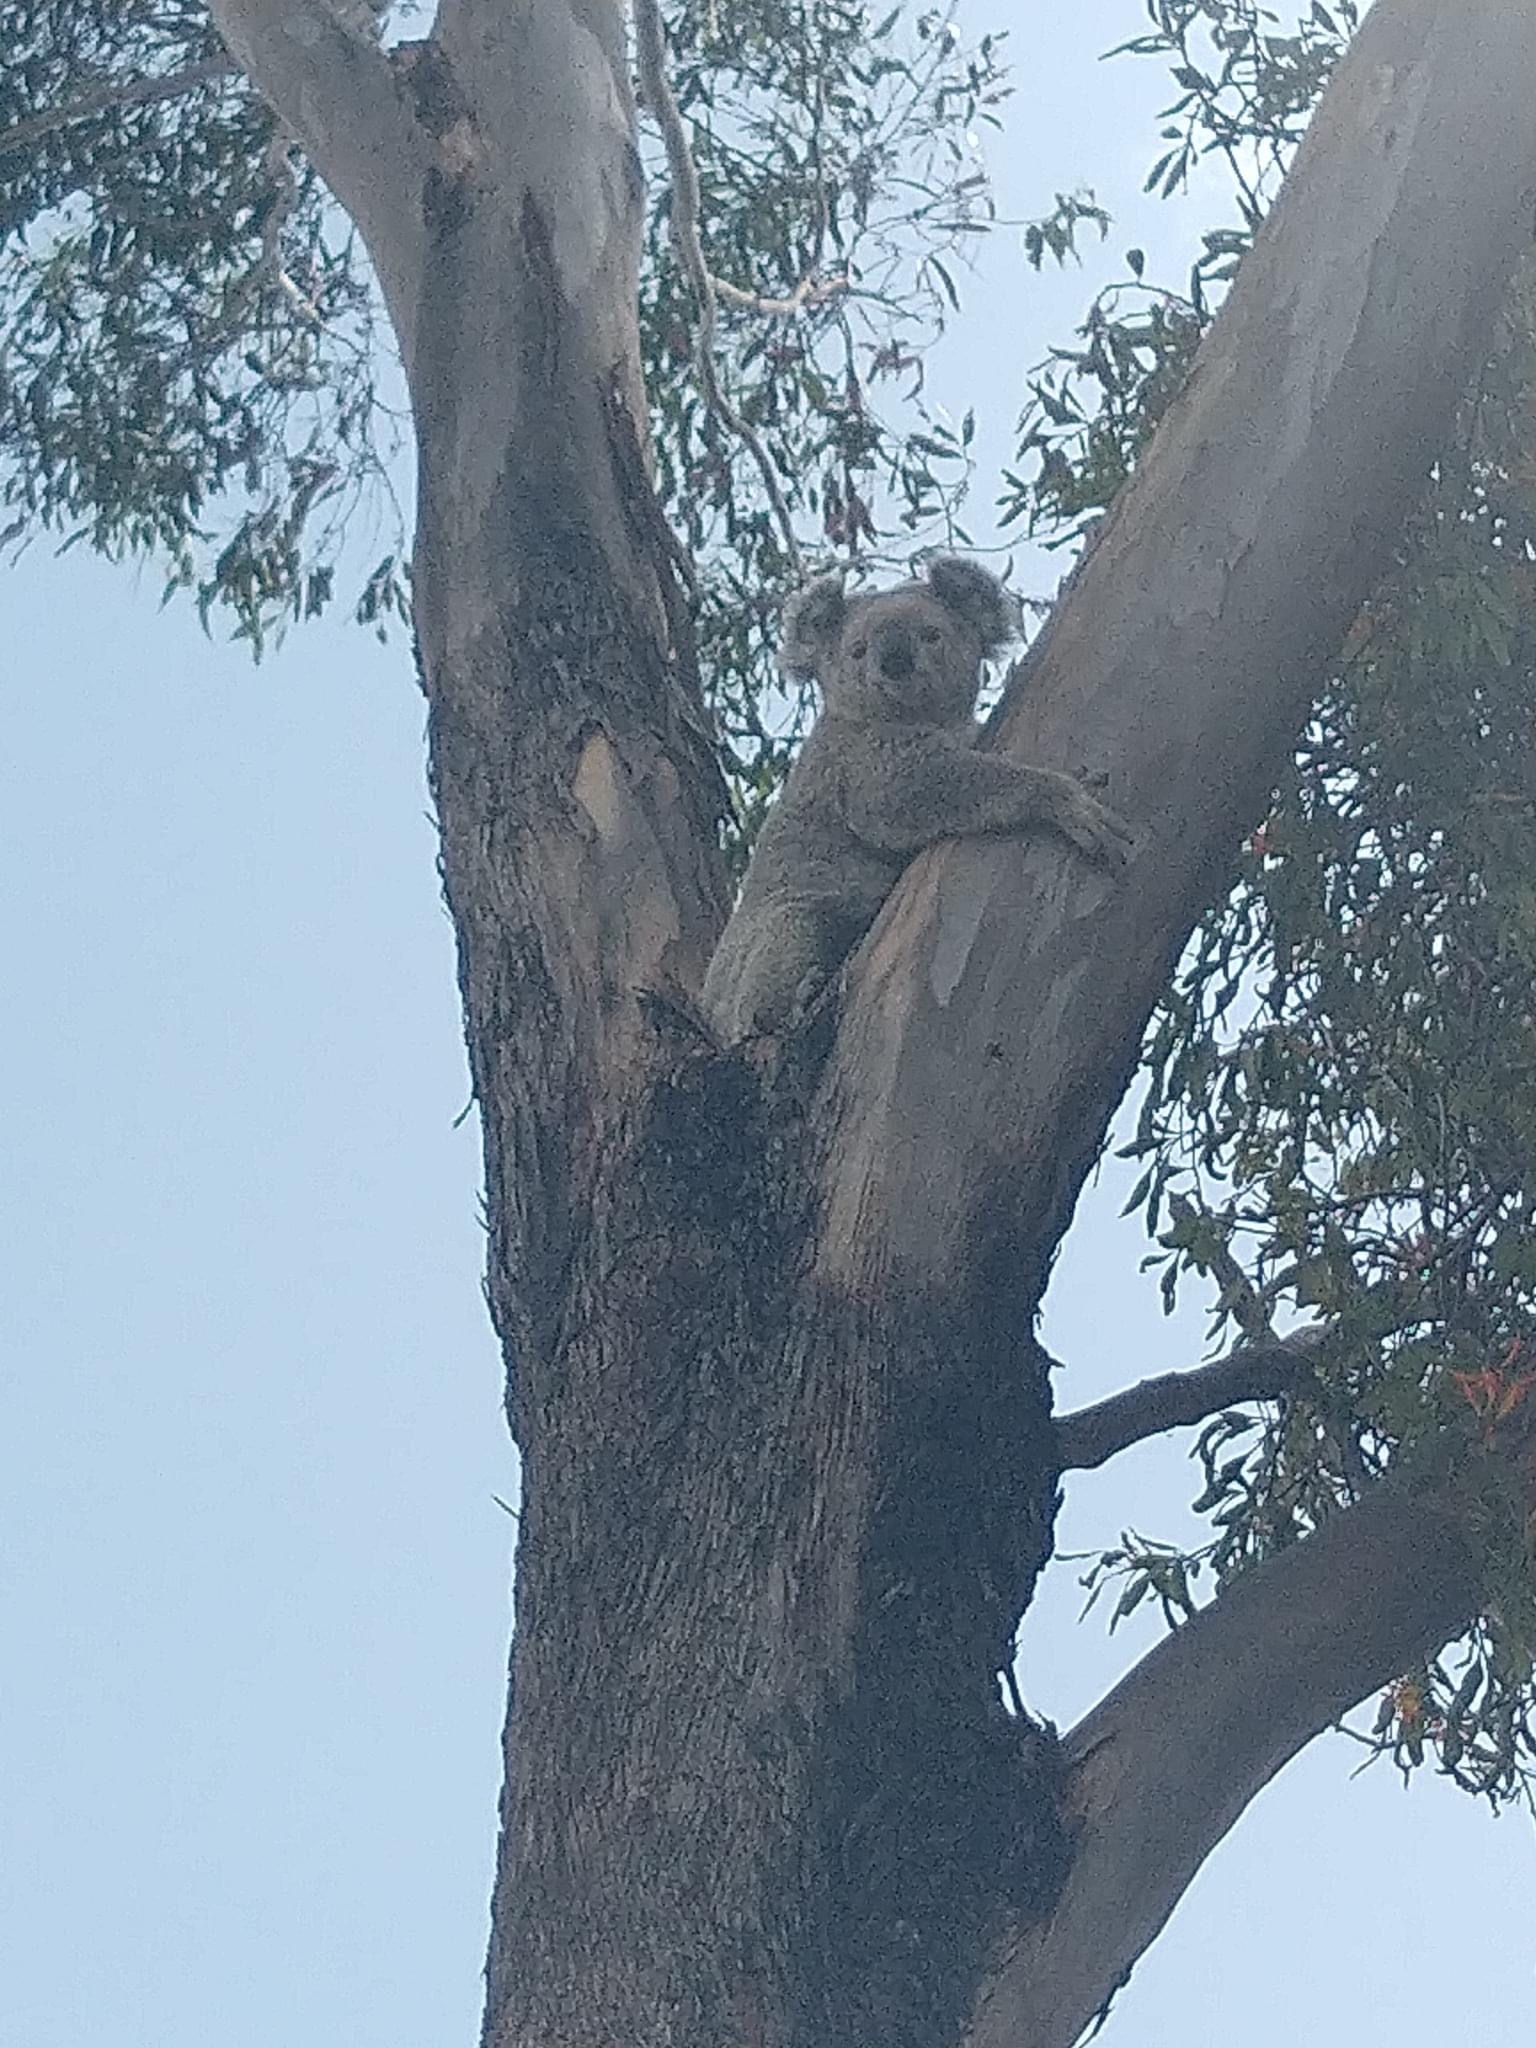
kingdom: Animalia
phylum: Chordata
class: Mammalia
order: Diprotodontia
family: Phascolarctidae
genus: Phascolarctos
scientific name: Phascolarctos cinereus
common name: Koala
